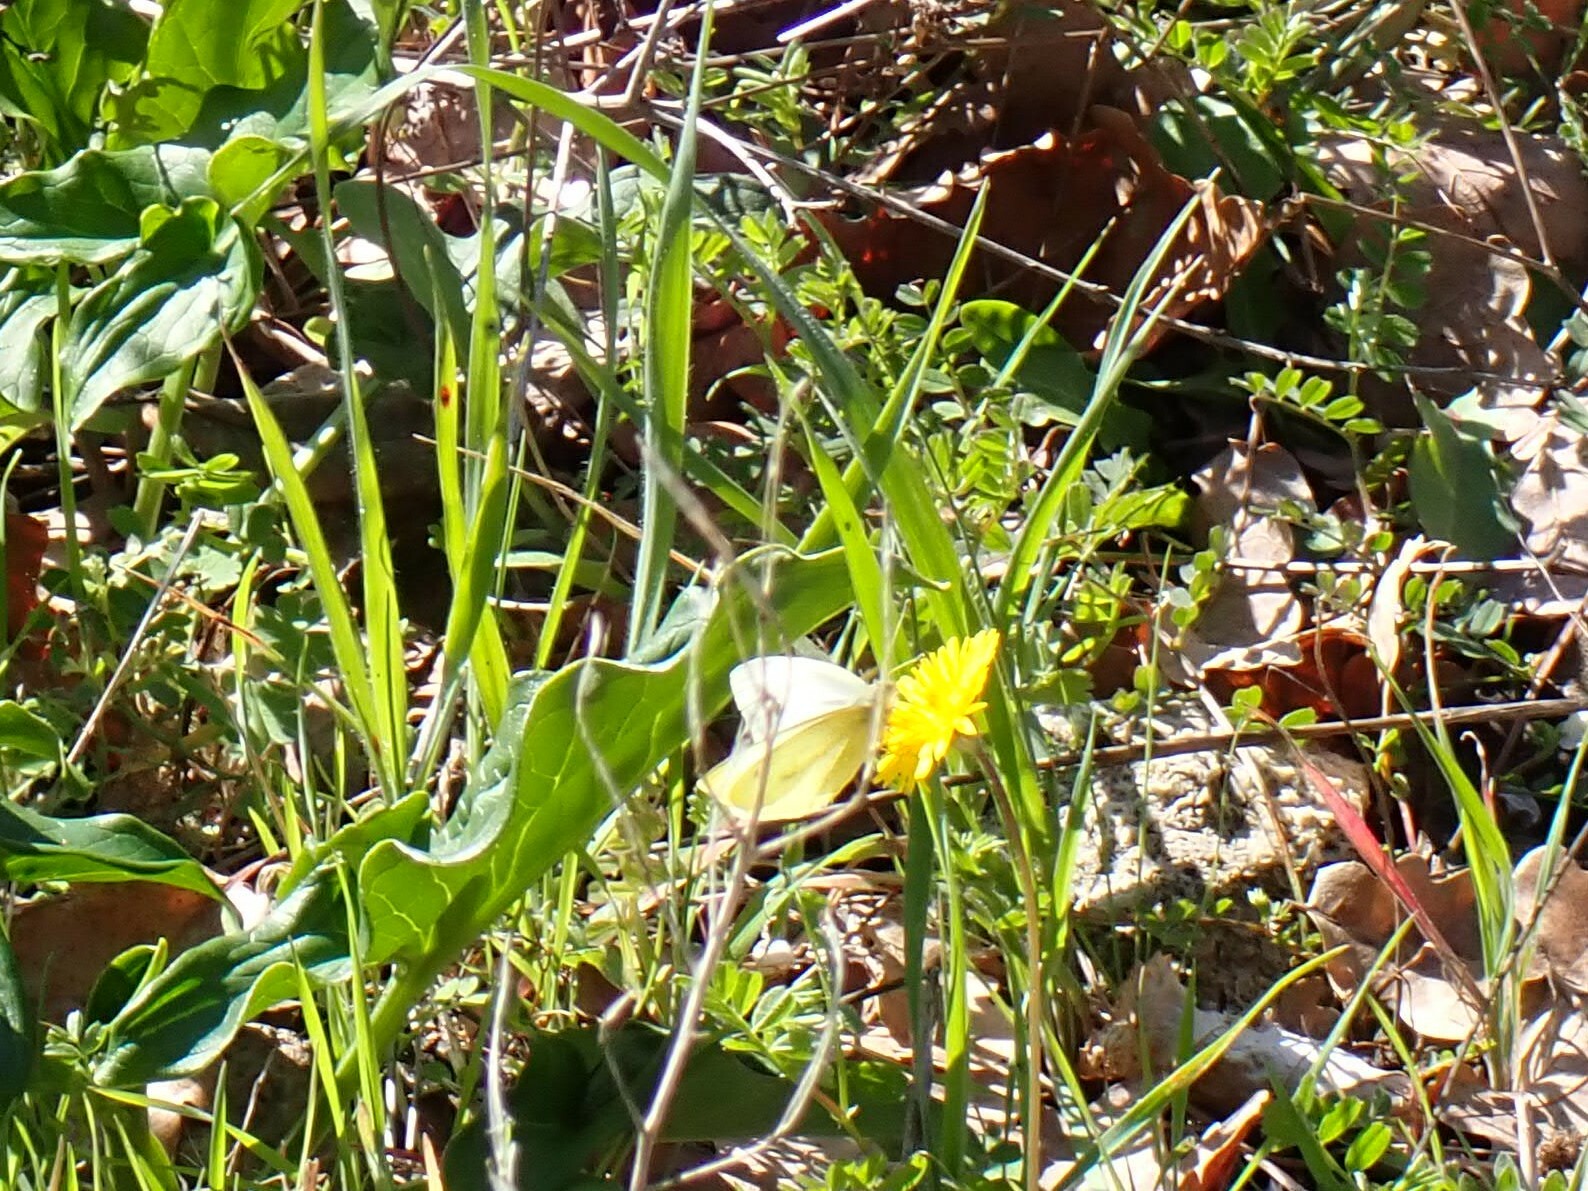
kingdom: Animalia
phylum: Arthropoda
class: Insecta
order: Lepidoptera
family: Pieridae
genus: Pieris
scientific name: Pieris rapae
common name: Small white
